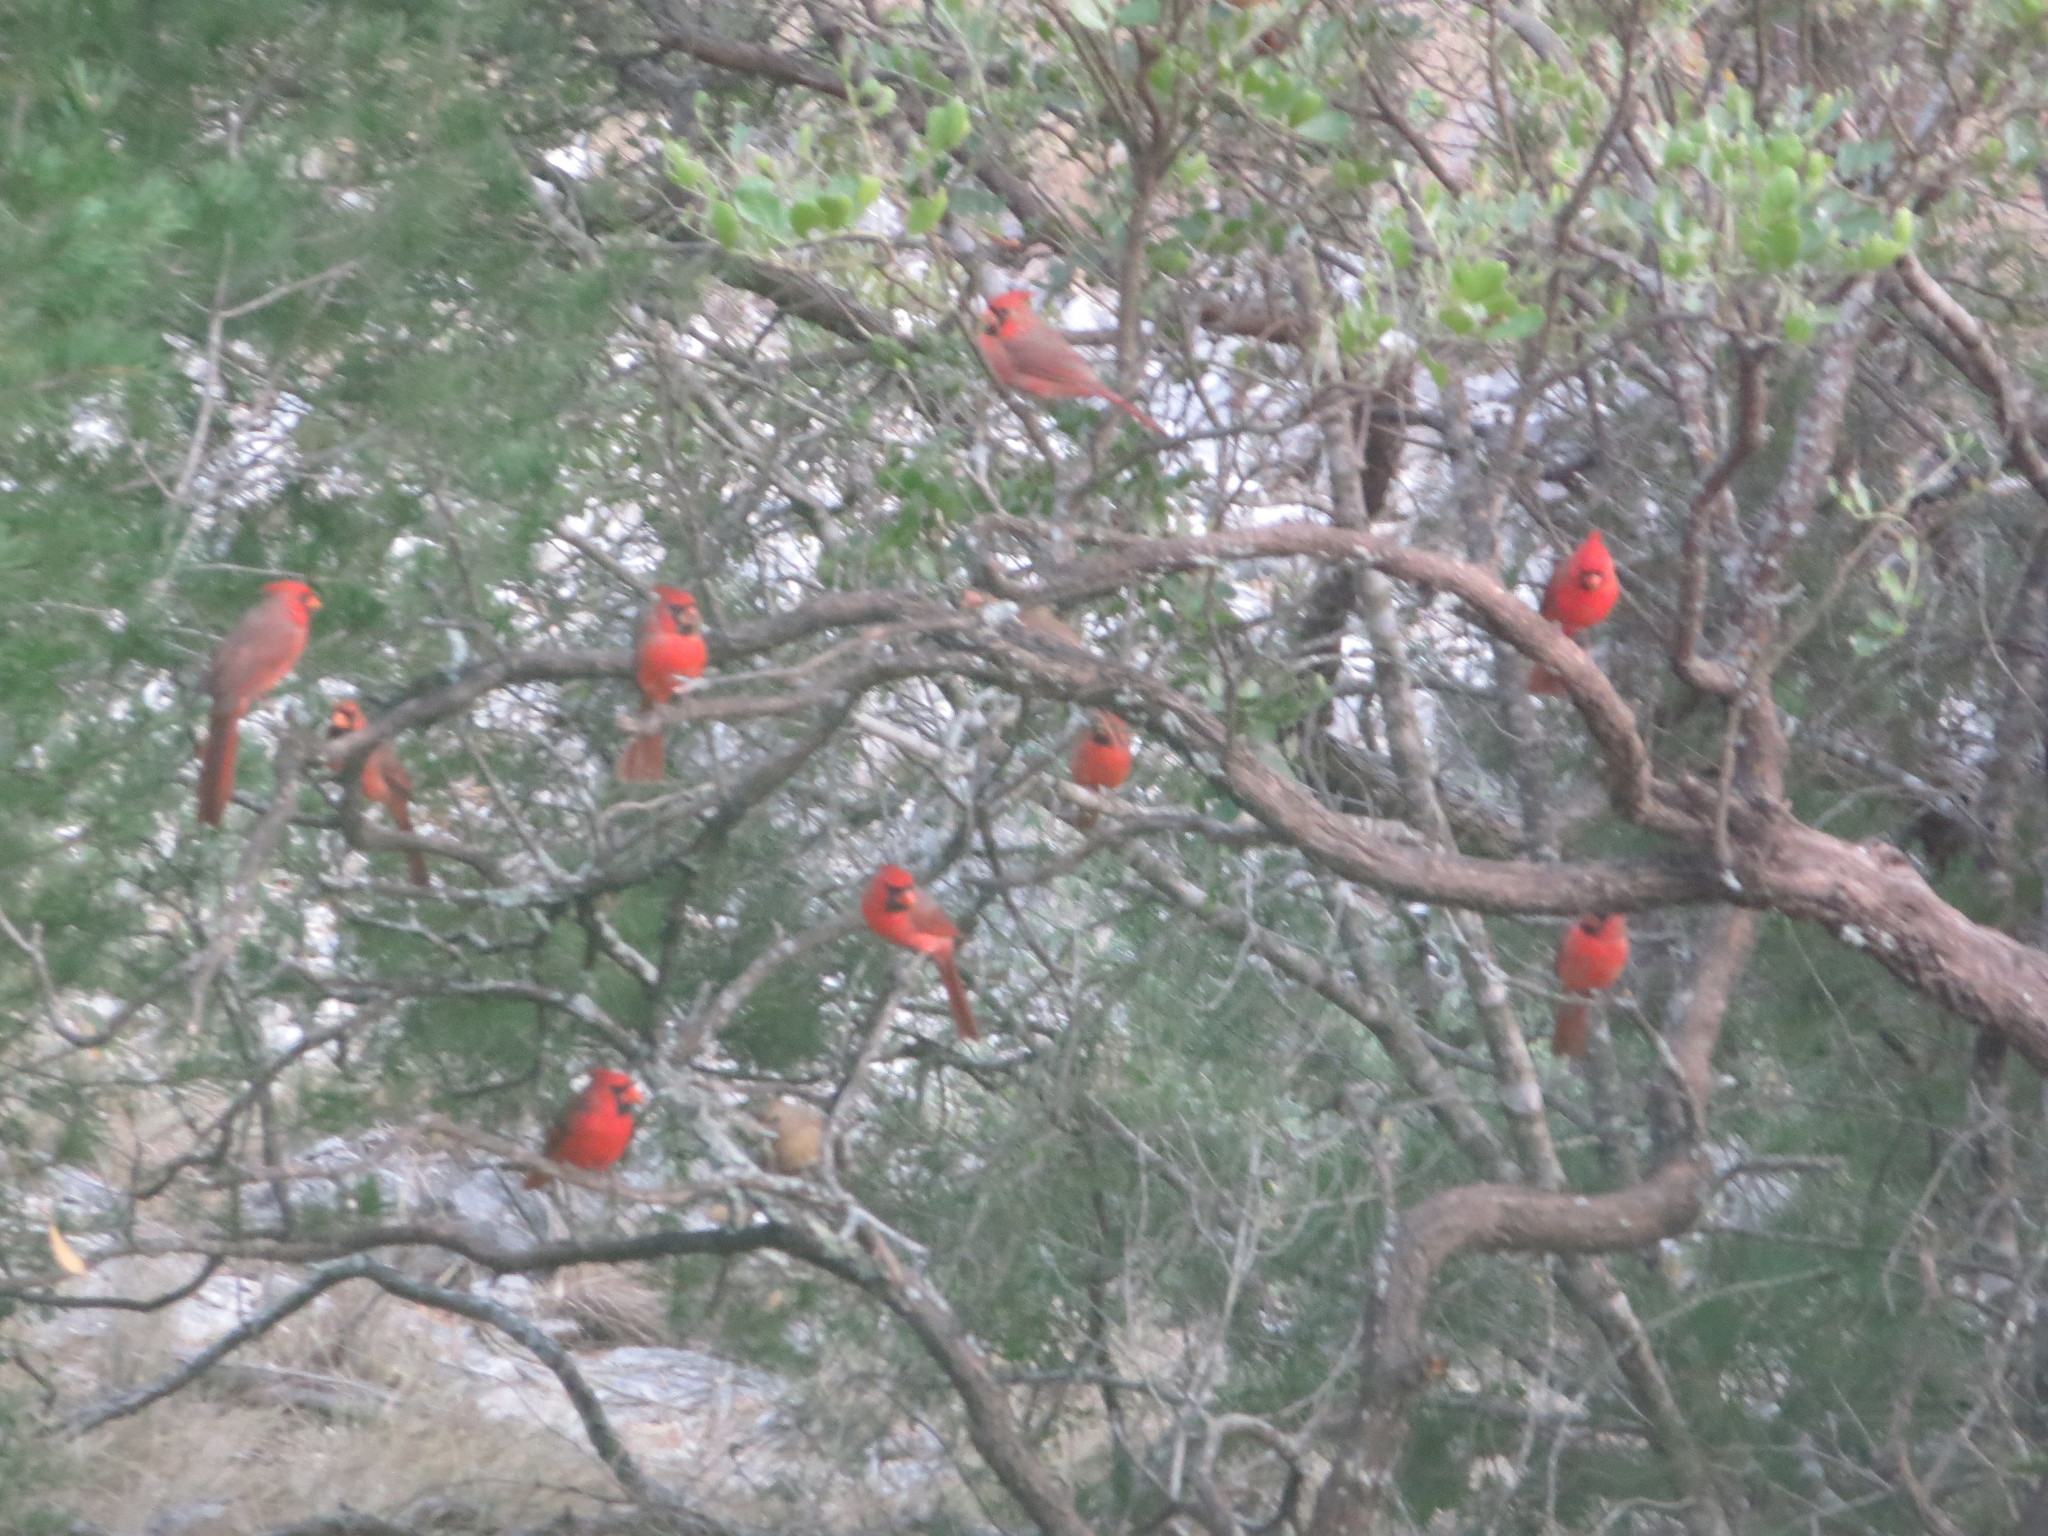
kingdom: Animalia
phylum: Chordata
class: Aves
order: Passeriformes
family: Cardinalidae
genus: Cardinalis
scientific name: Cardinalis cardinalis
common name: Northern cardinal
